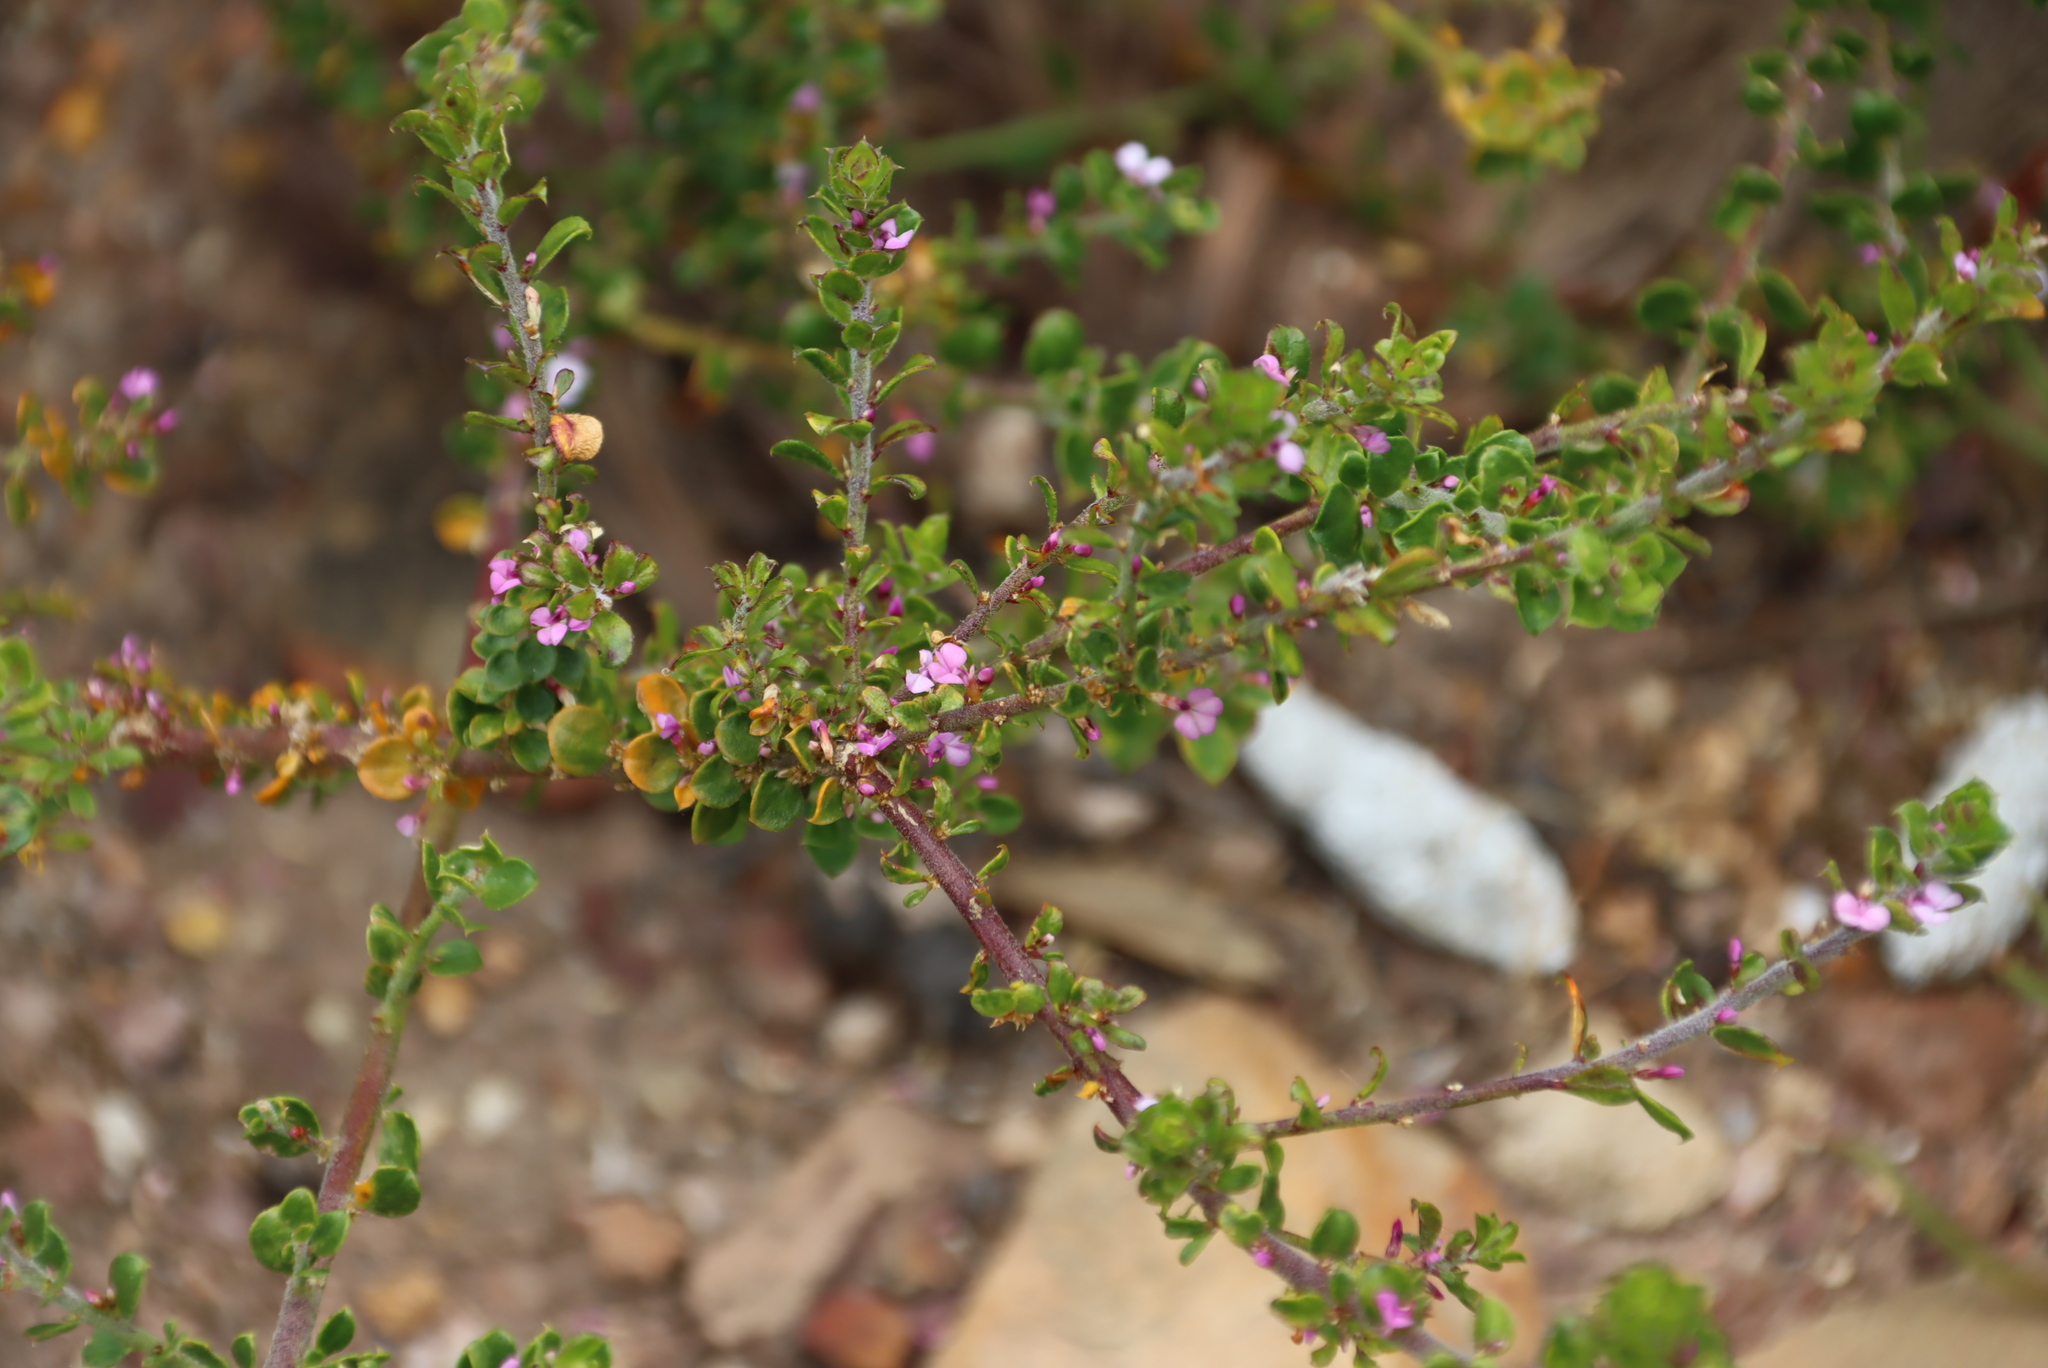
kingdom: Plantae
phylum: Tracheophyta
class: Magnoliopsida
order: Fabales
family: Polygalaceae
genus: Muraltia
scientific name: Muraltia orbicularis
